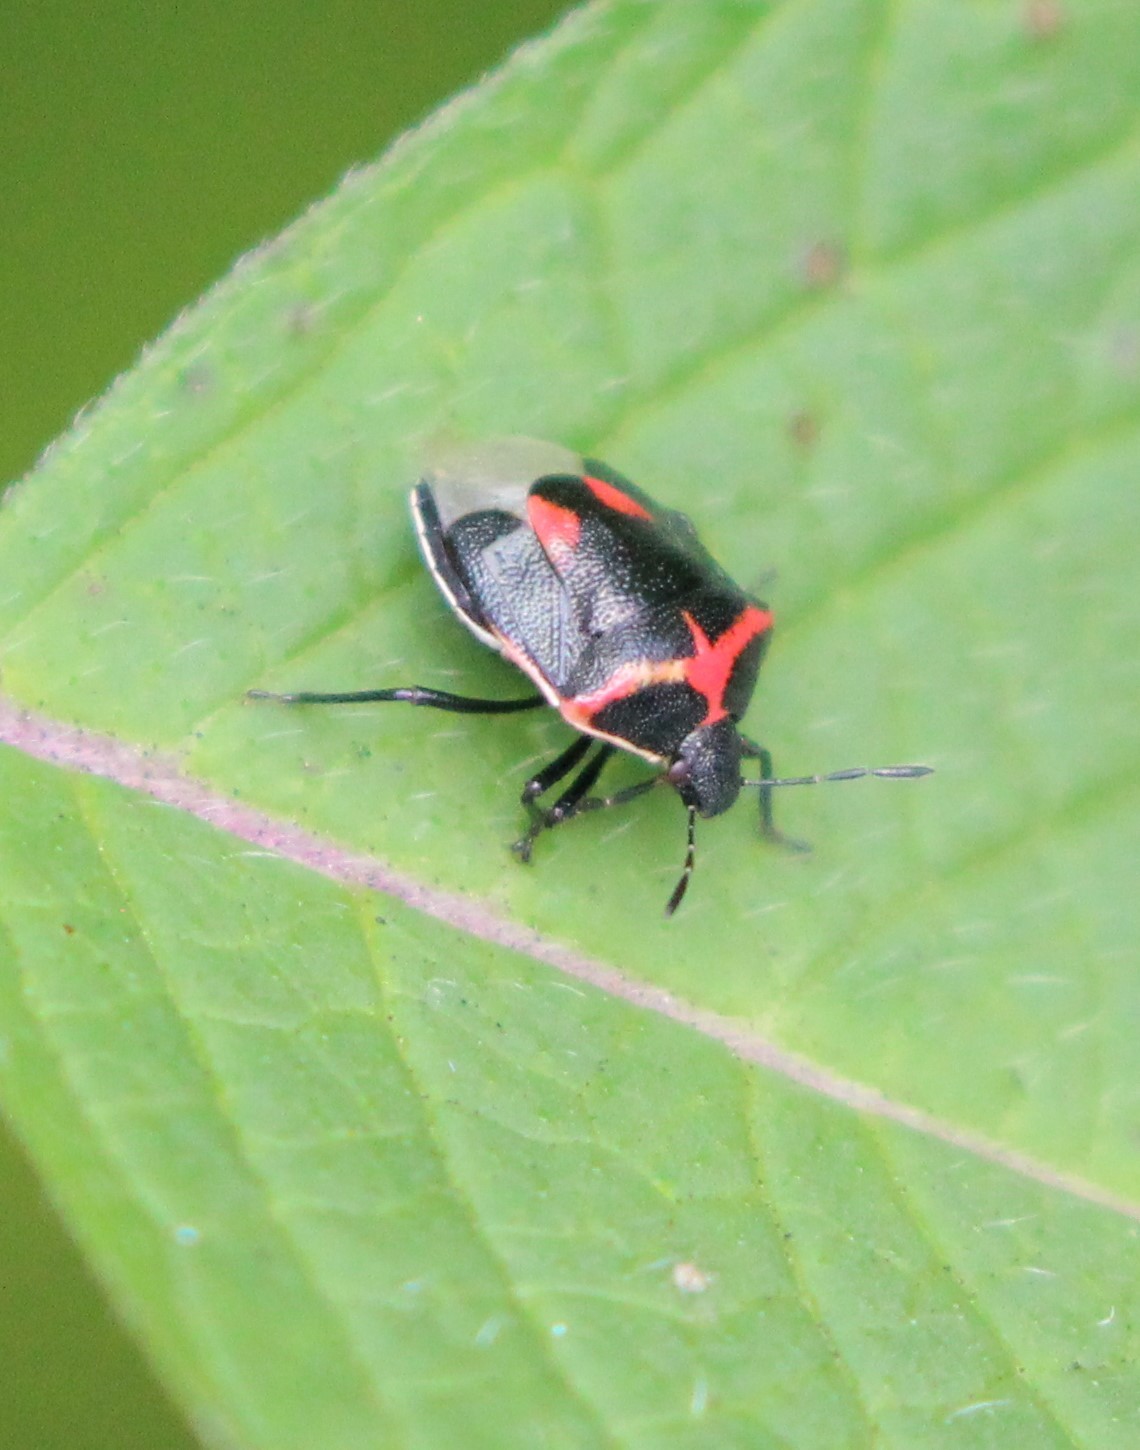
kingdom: Animalia
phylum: Arthropoda
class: Insecta
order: Hemiptera
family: Pentatomidae
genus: Cosmopepla
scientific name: Cosmopepla lintneriana
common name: Twice-stabbed stink bug
